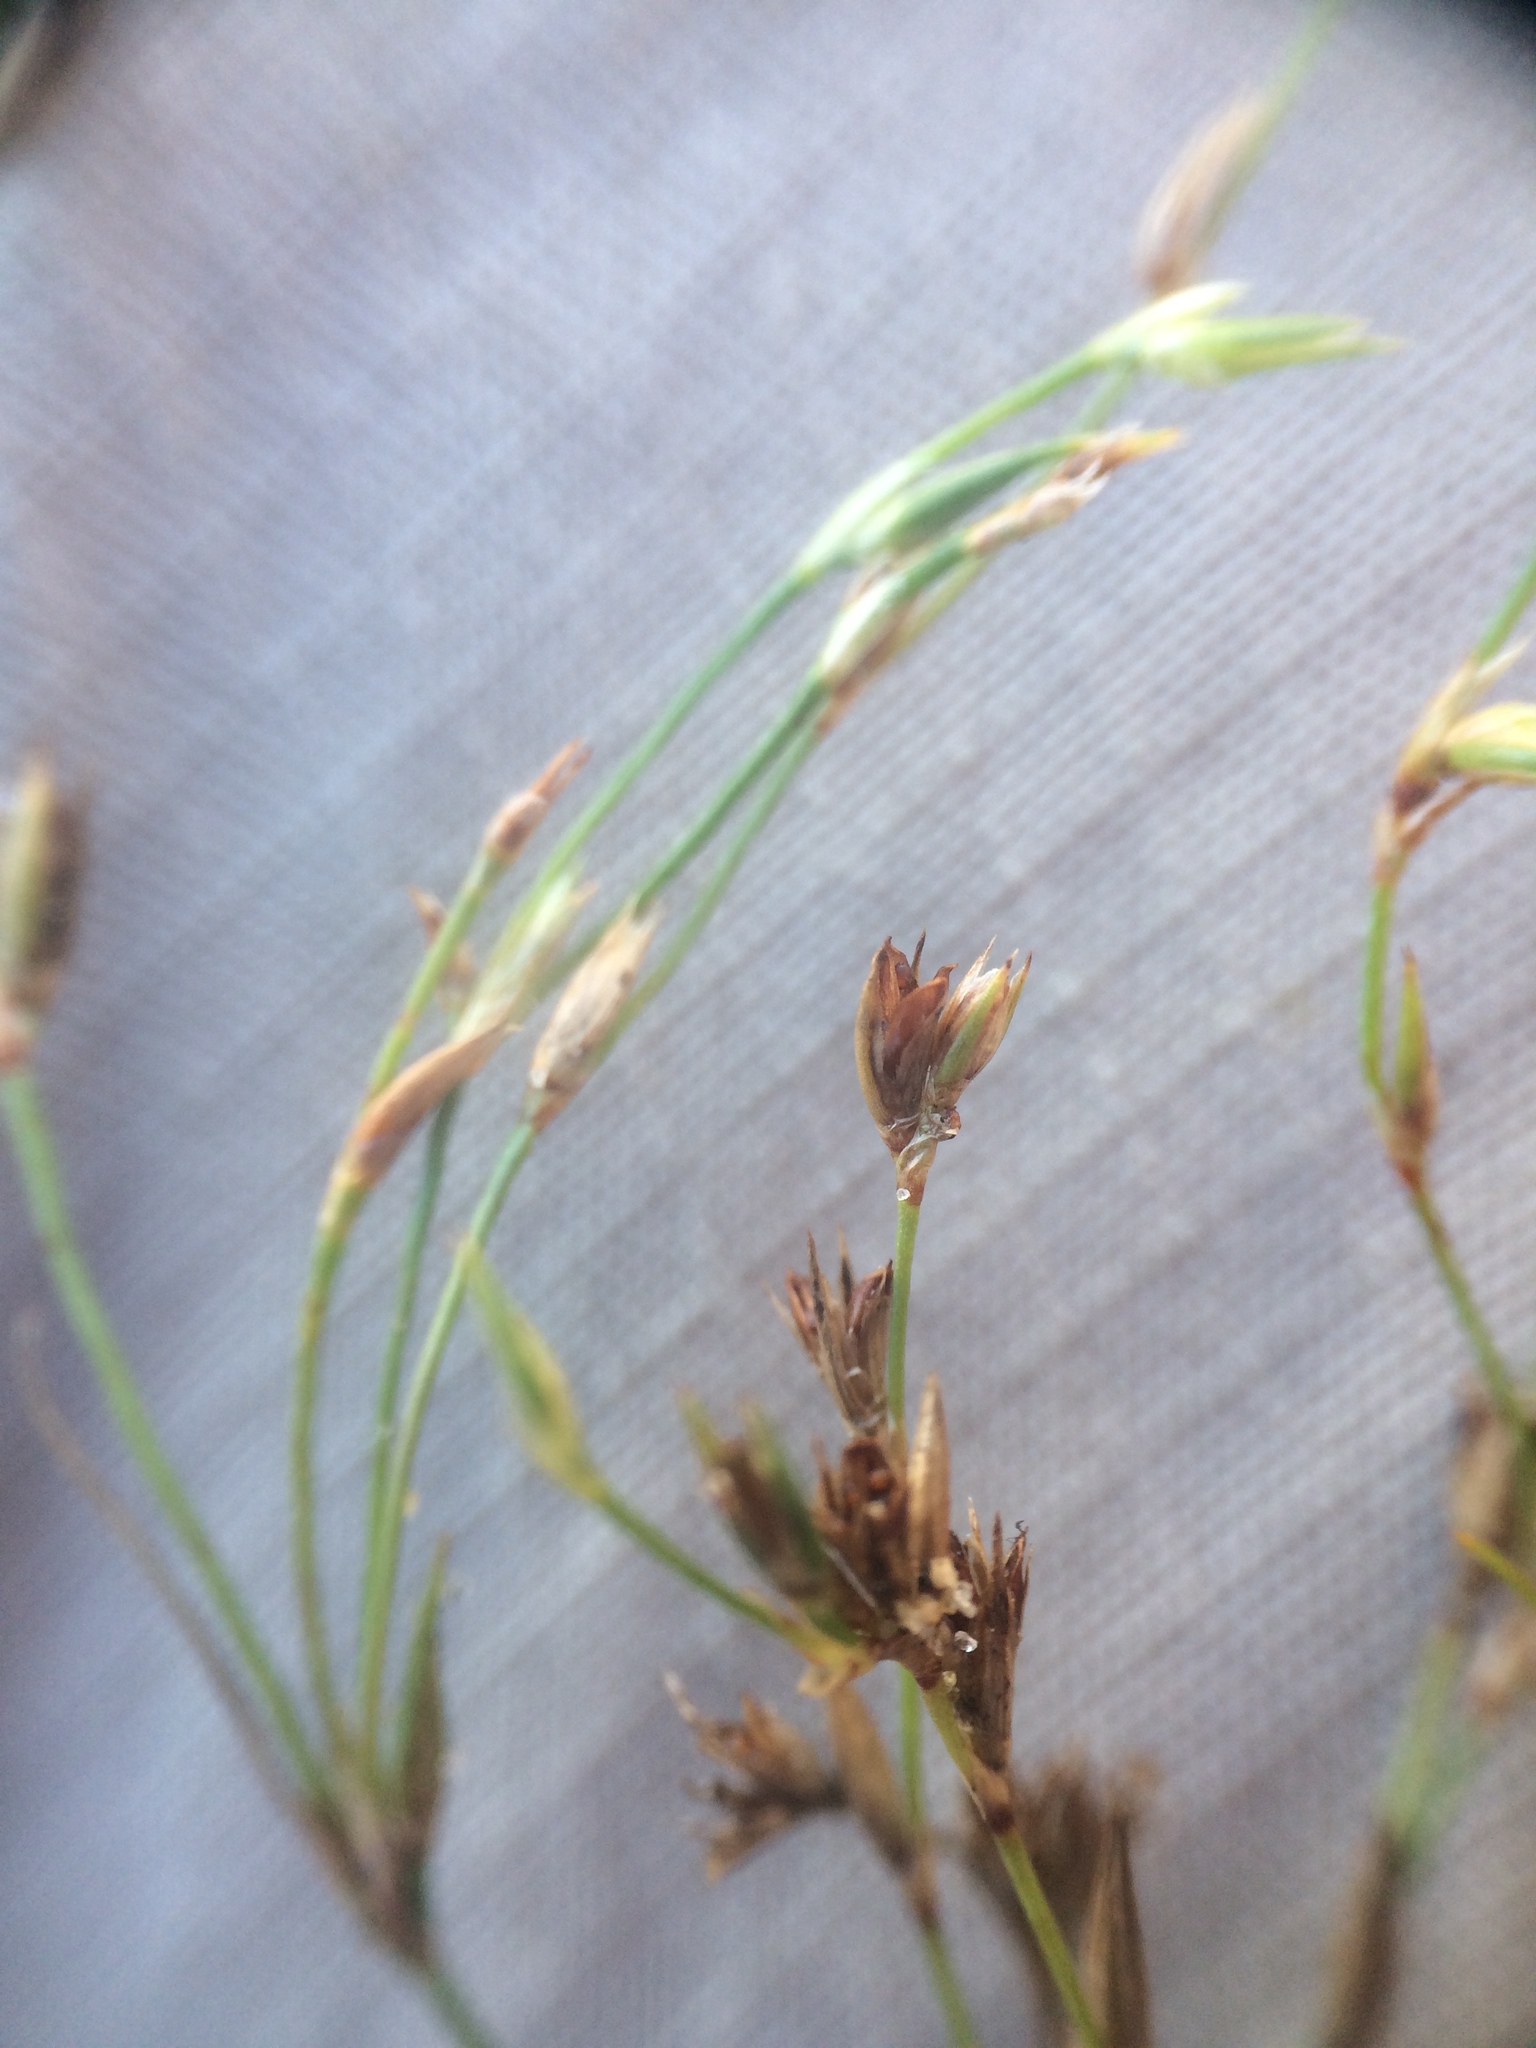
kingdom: Plantae
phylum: Tracheophyta
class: Liliopsida
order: Poales
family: Juncaceae
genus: Juncus
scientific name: Juncus bufonius
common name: Toad rush
